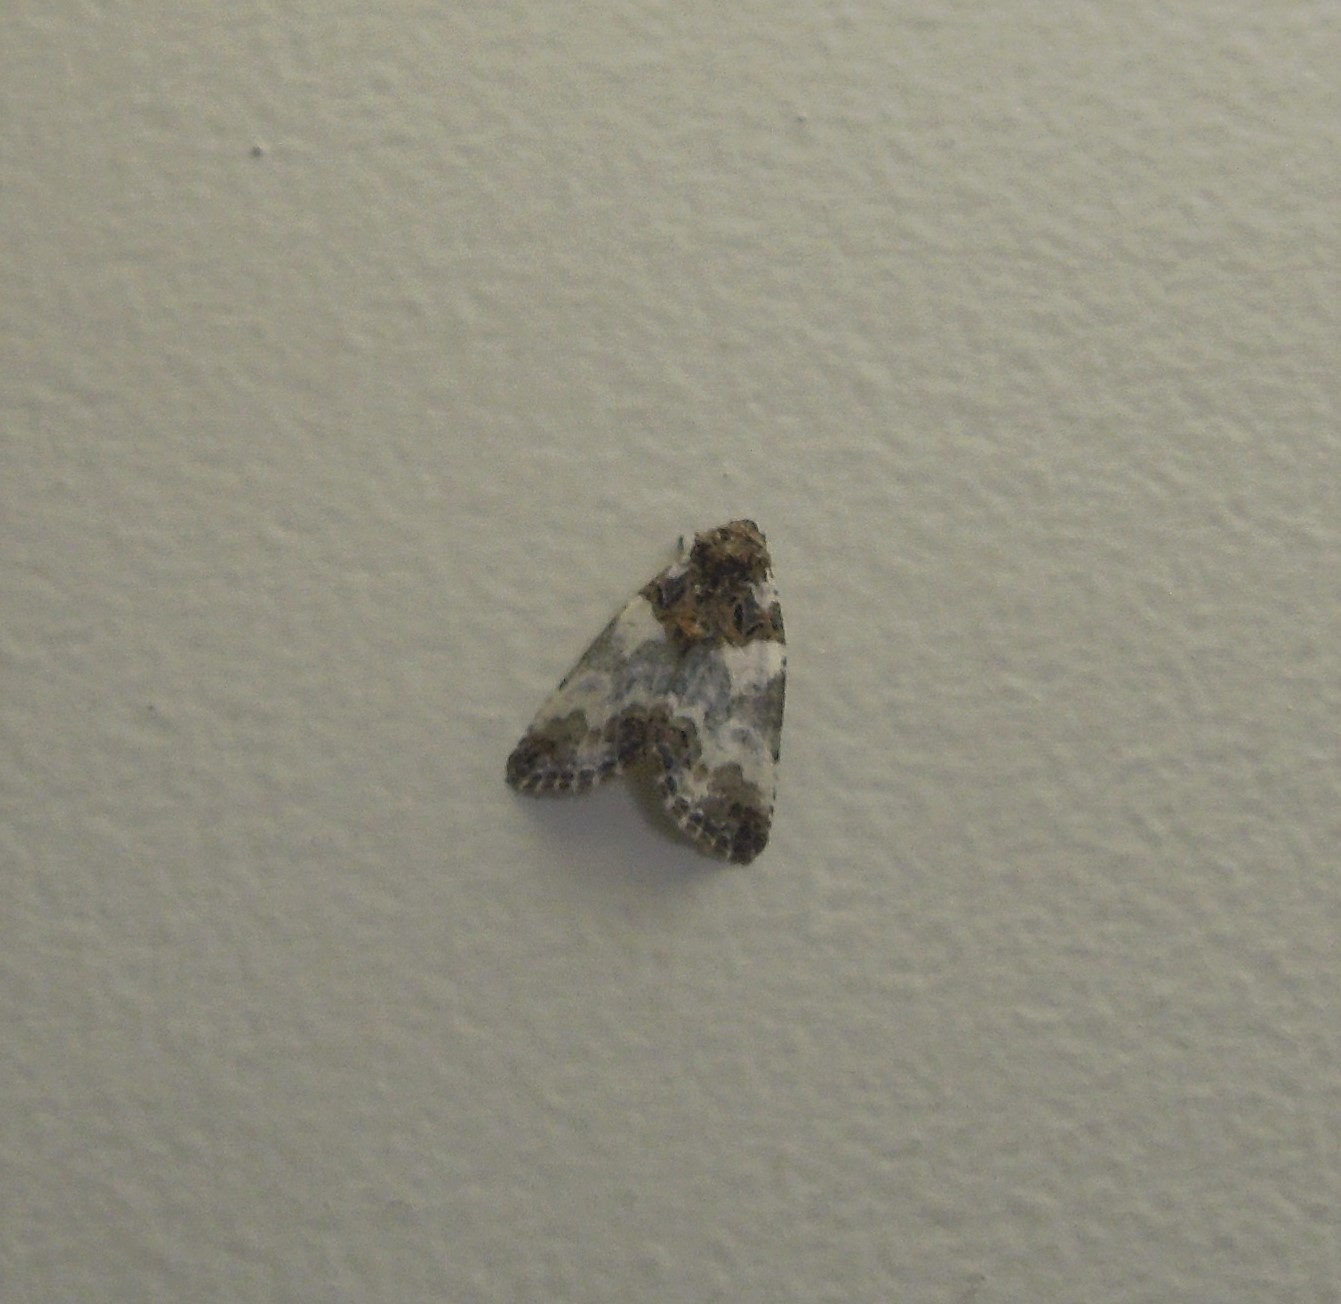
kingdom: Animalia
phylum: Arthropoda
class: Insecta
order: Lepidoptera
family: Noctuidae
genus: Cerma
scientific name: Cerma cerintha
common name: Tufted bird-dropping moth
